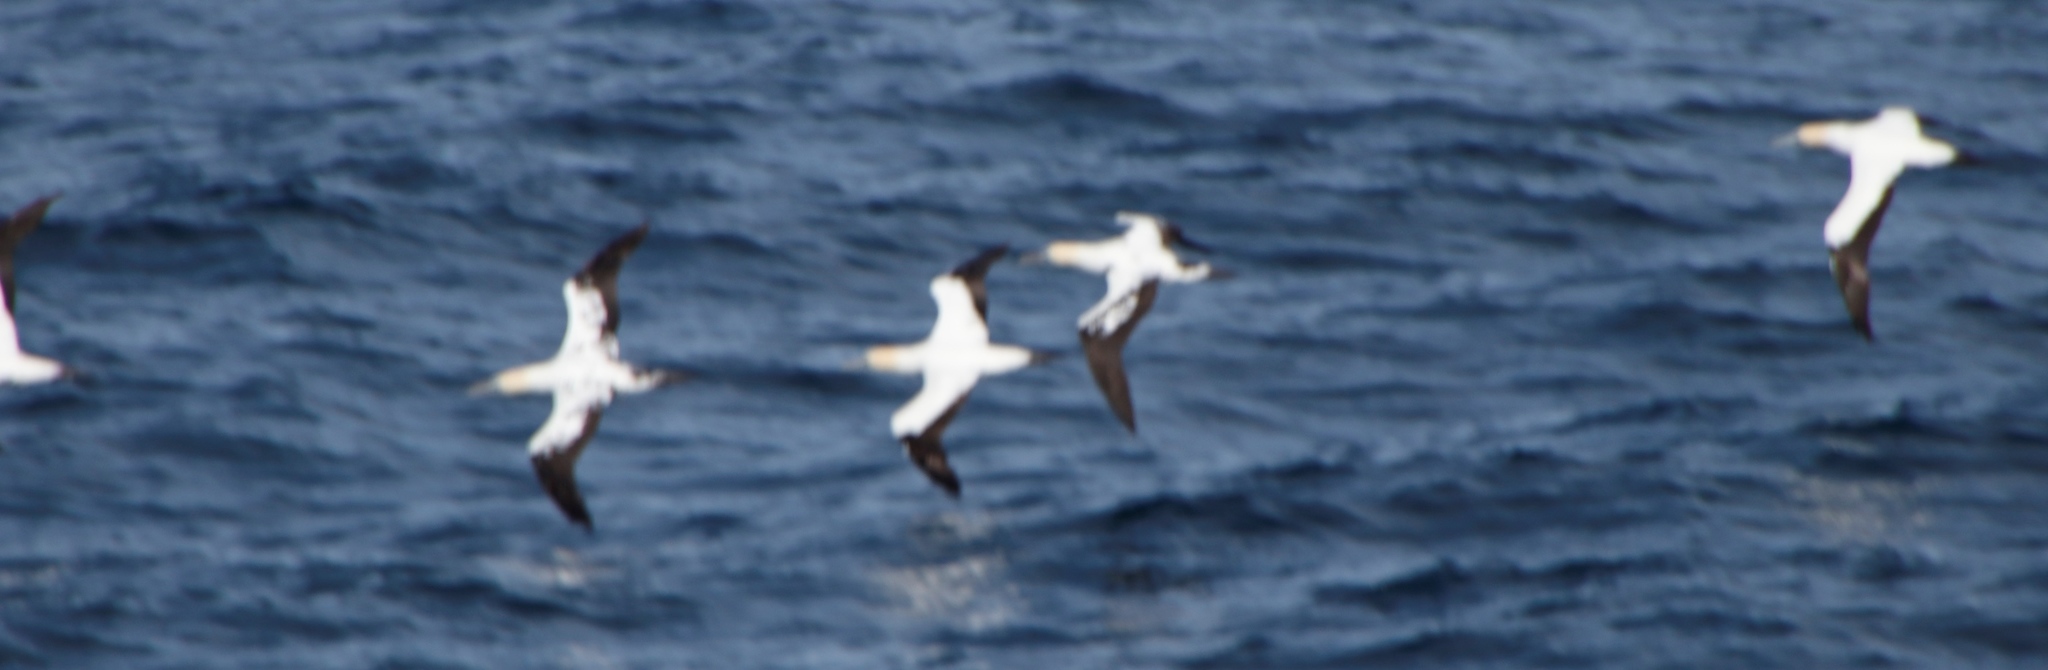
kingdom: Animalia
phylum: Chordata
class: Aves
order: Suliformes
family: Sulidae
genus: Morus
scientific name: Morus capensis
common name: Cape gannet
